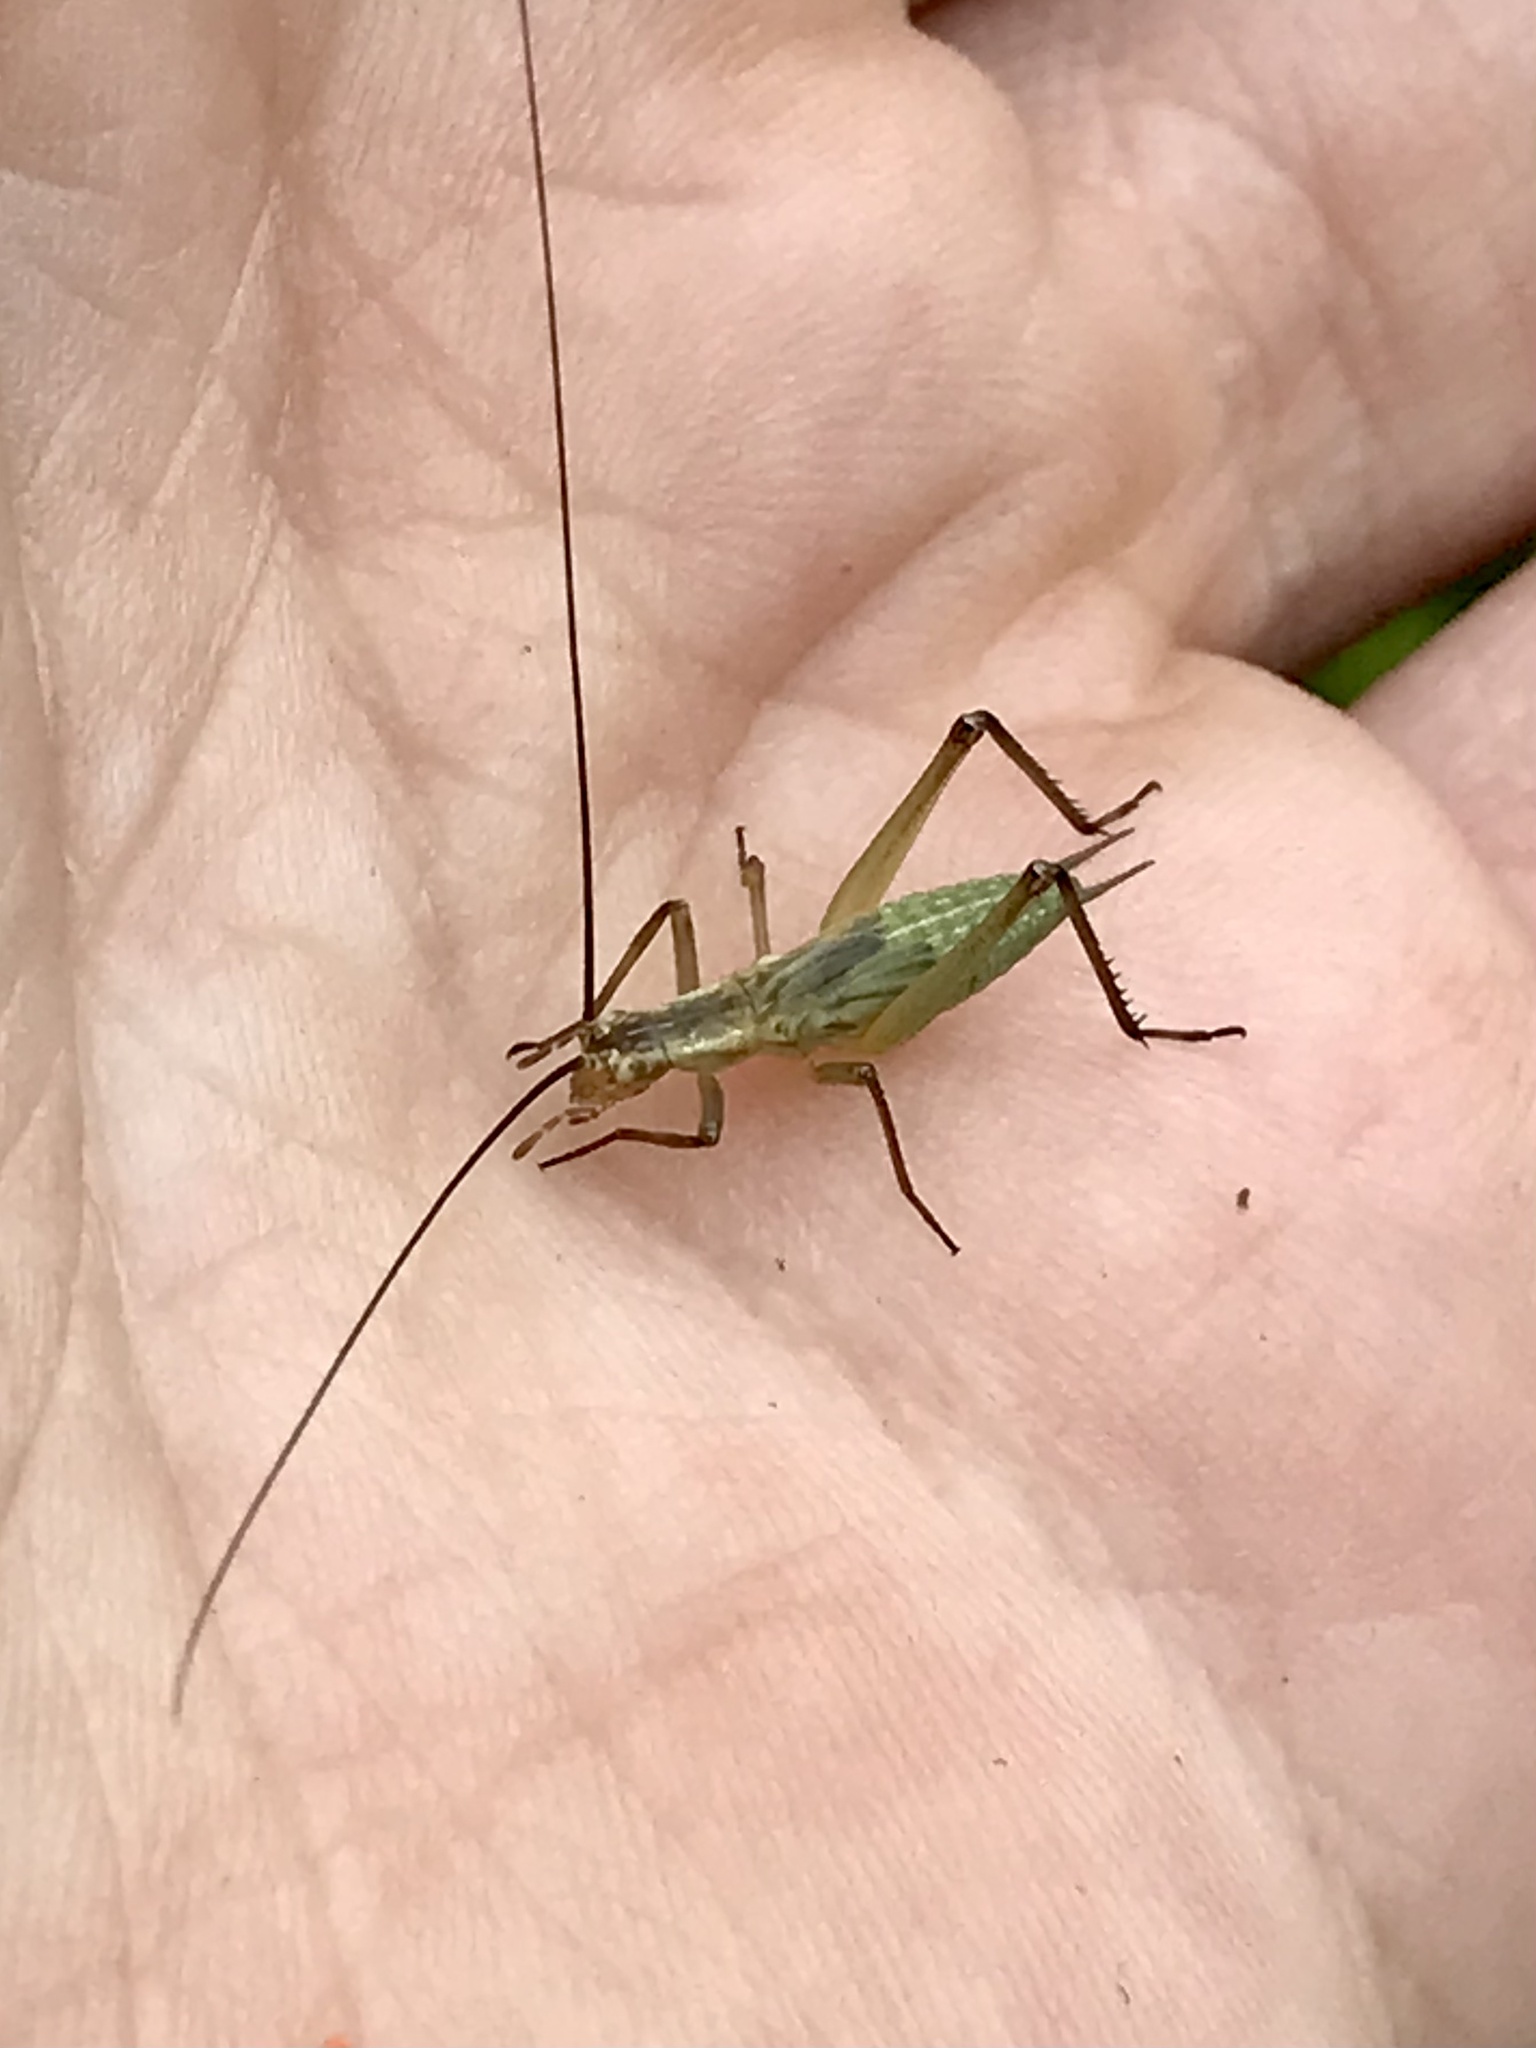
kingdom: Animalia
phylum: Arthropoda
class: Insecta
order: Orthoptera
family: Gryllidae
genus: Oecanthus
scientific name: Oecanthus forbesi
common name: Forbes’s tree cricket
